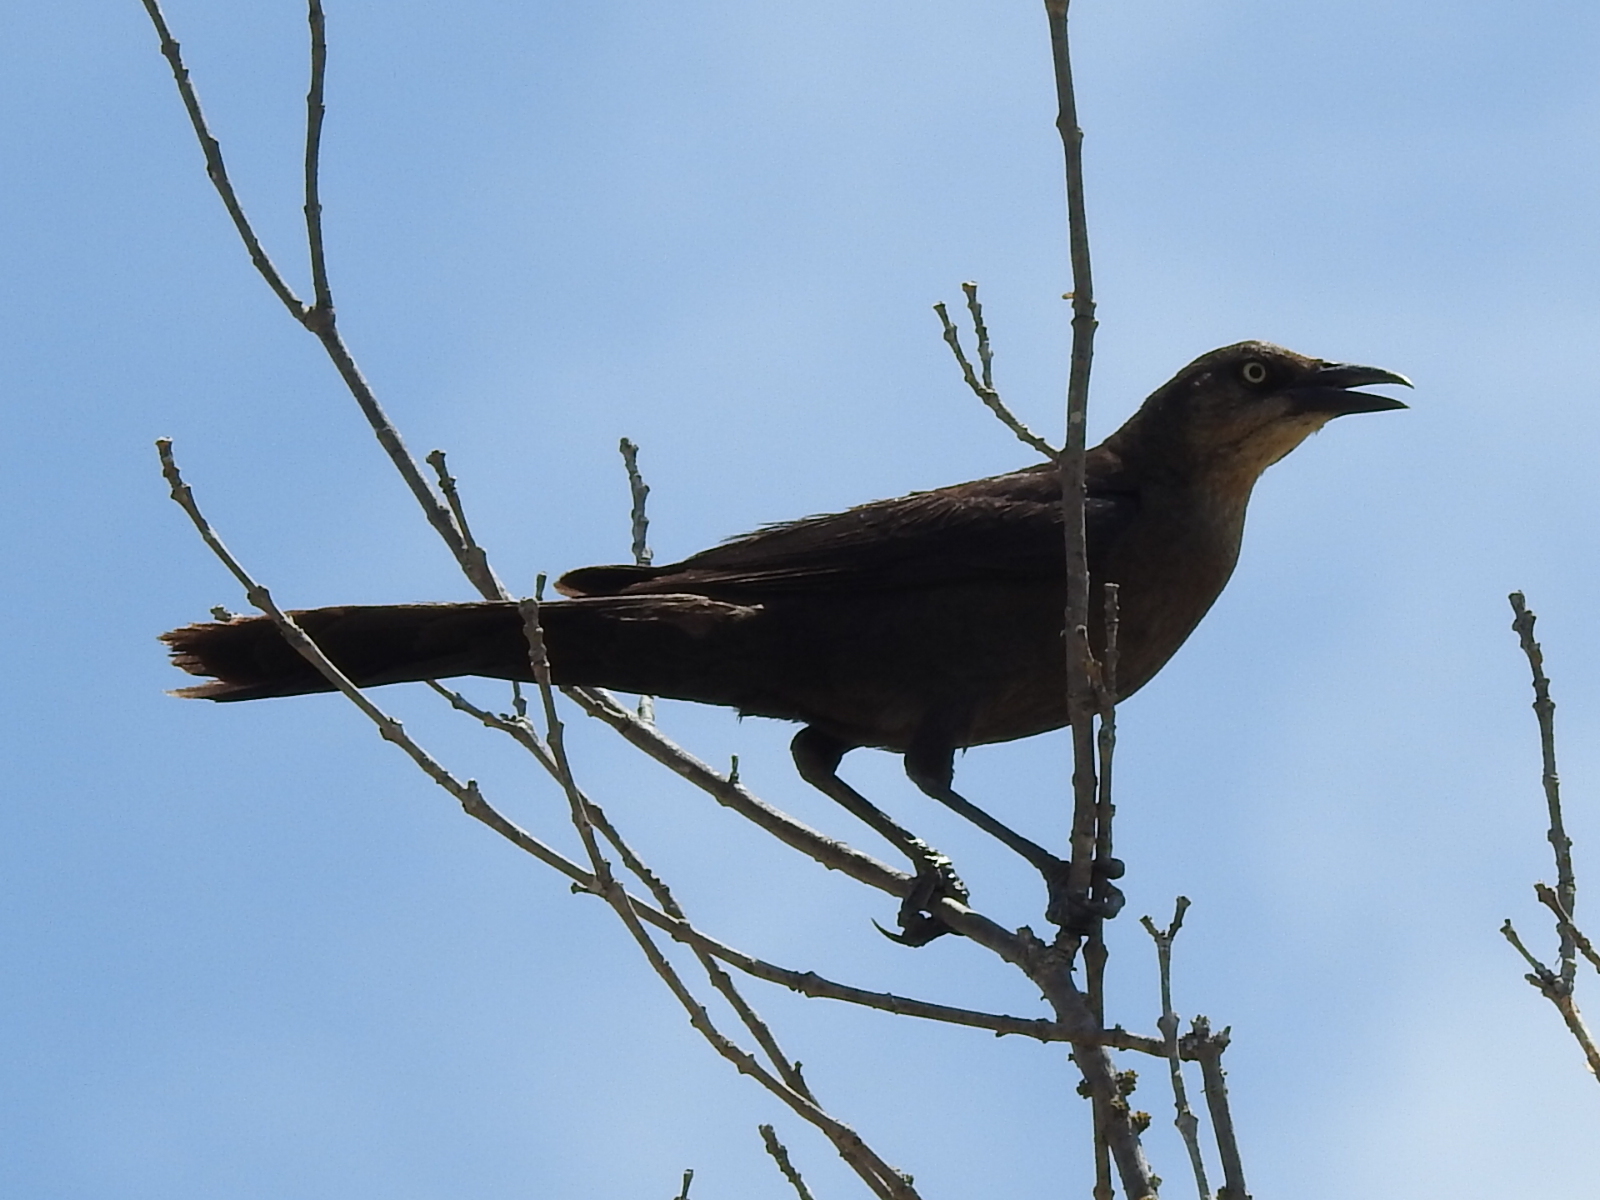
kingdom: Animalia
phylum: Chordata
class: Aves
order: Passeriformes
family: Icteridae
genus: Quiscalus
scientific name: Quiscalus mexicanus
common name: Great-tailed grackle
